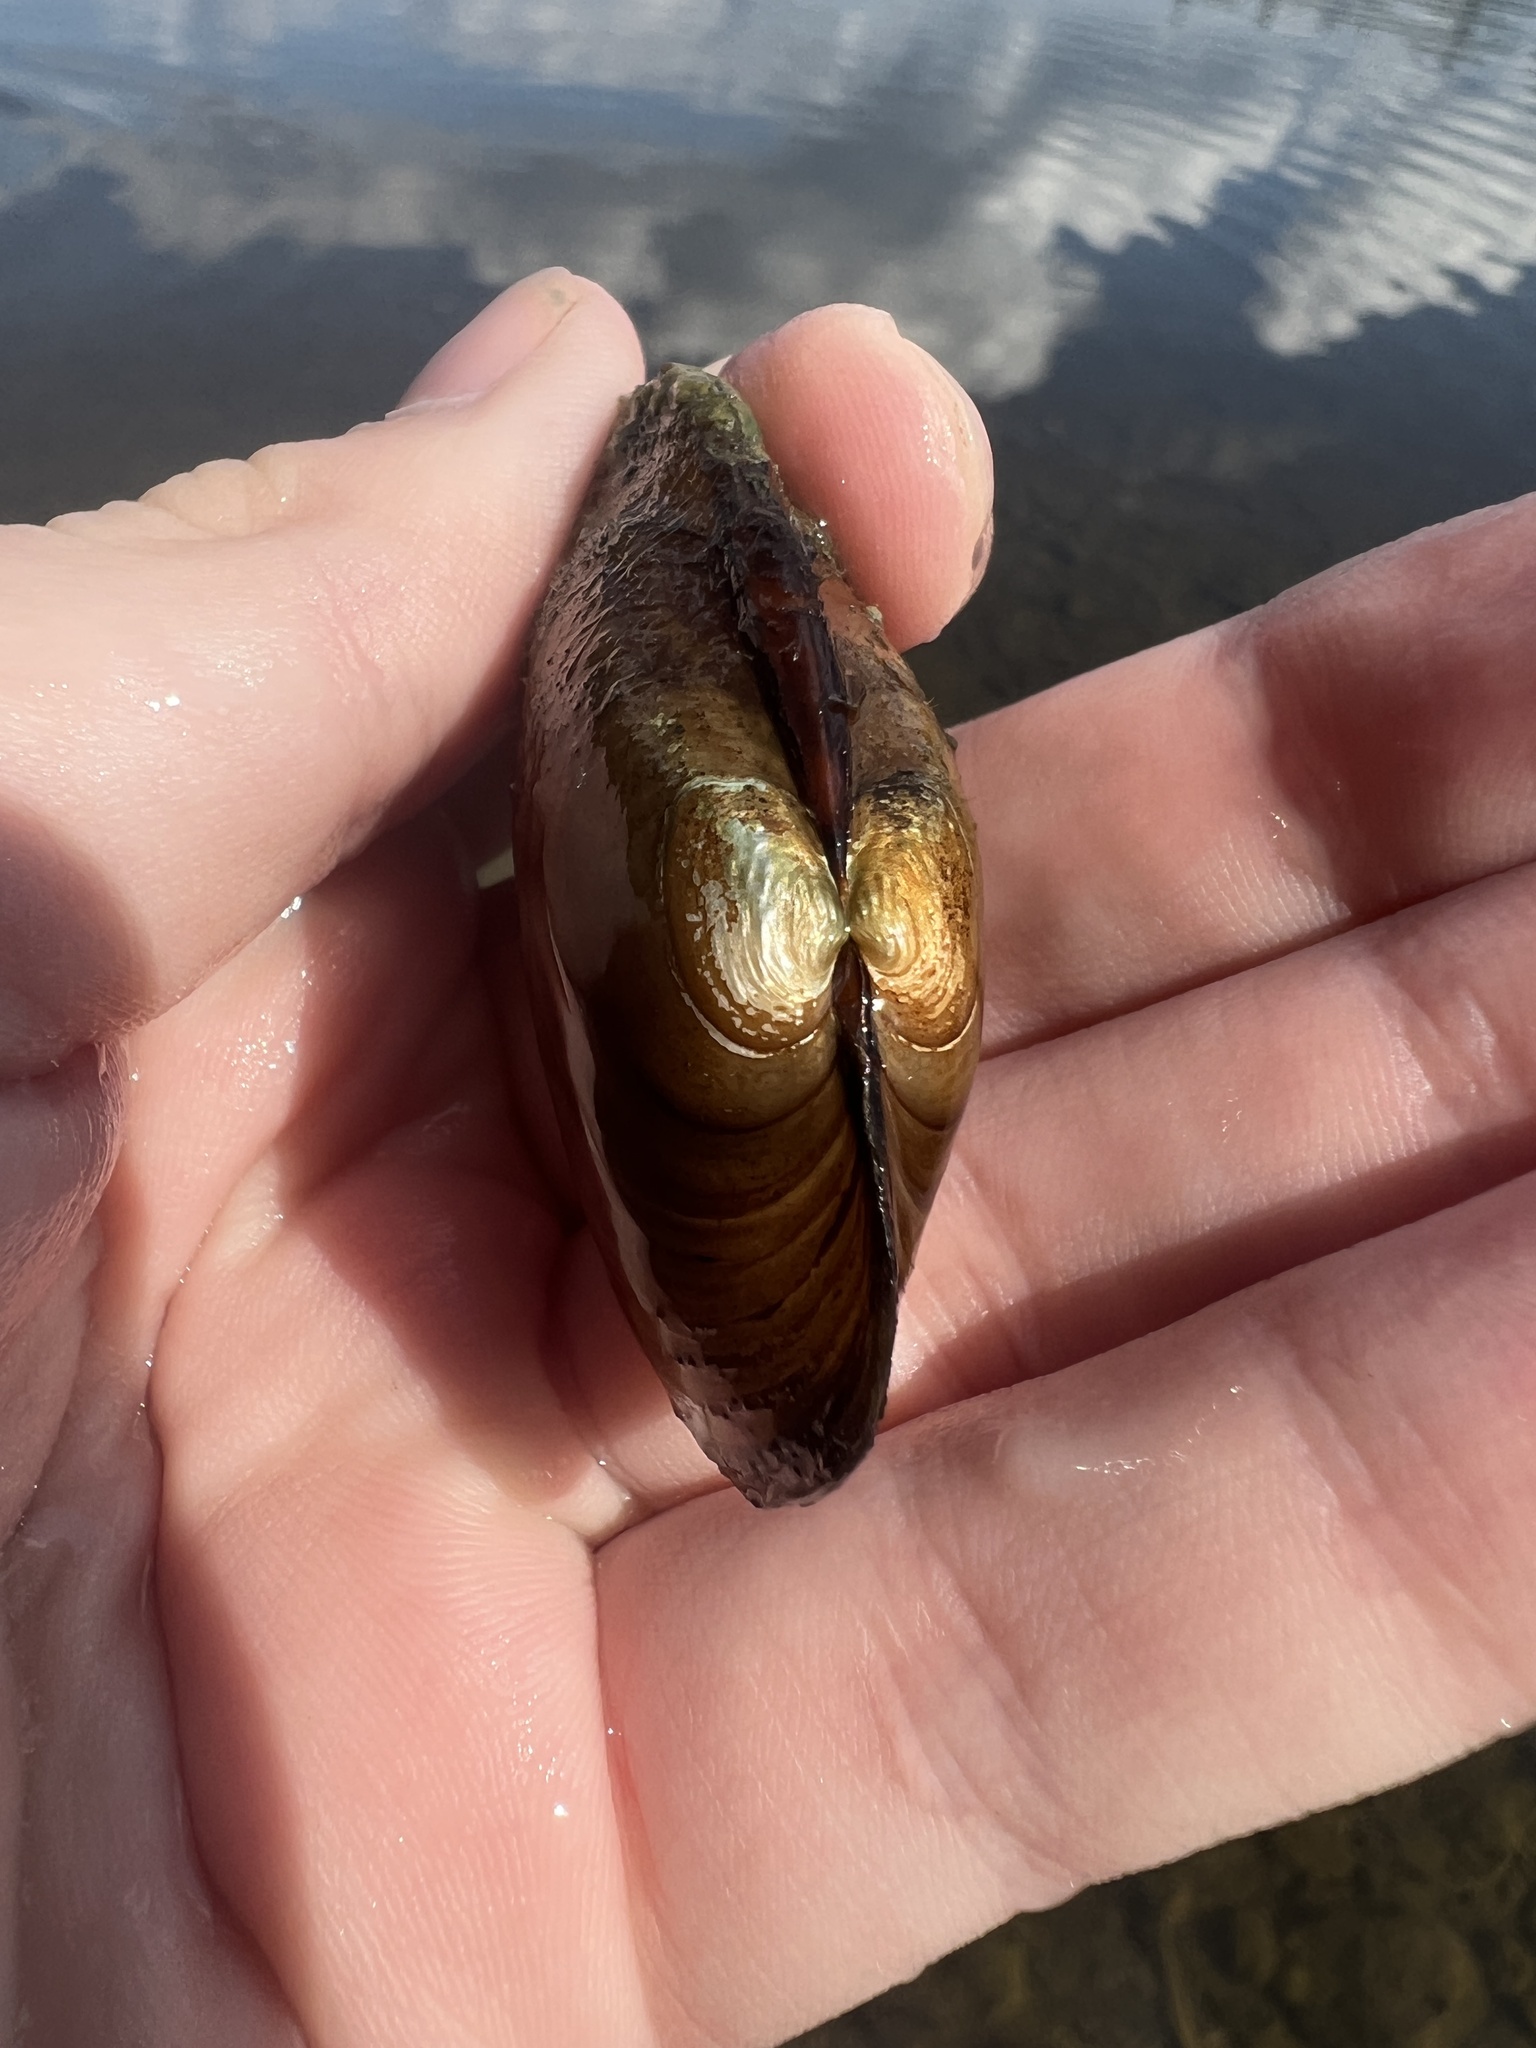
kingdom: Animalia
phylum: Mollusca
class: Bivalvia
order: Unionida
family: Unionidae
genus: Lampsilis
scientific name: Lampsilis siliquoidea
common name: Fatmucket
